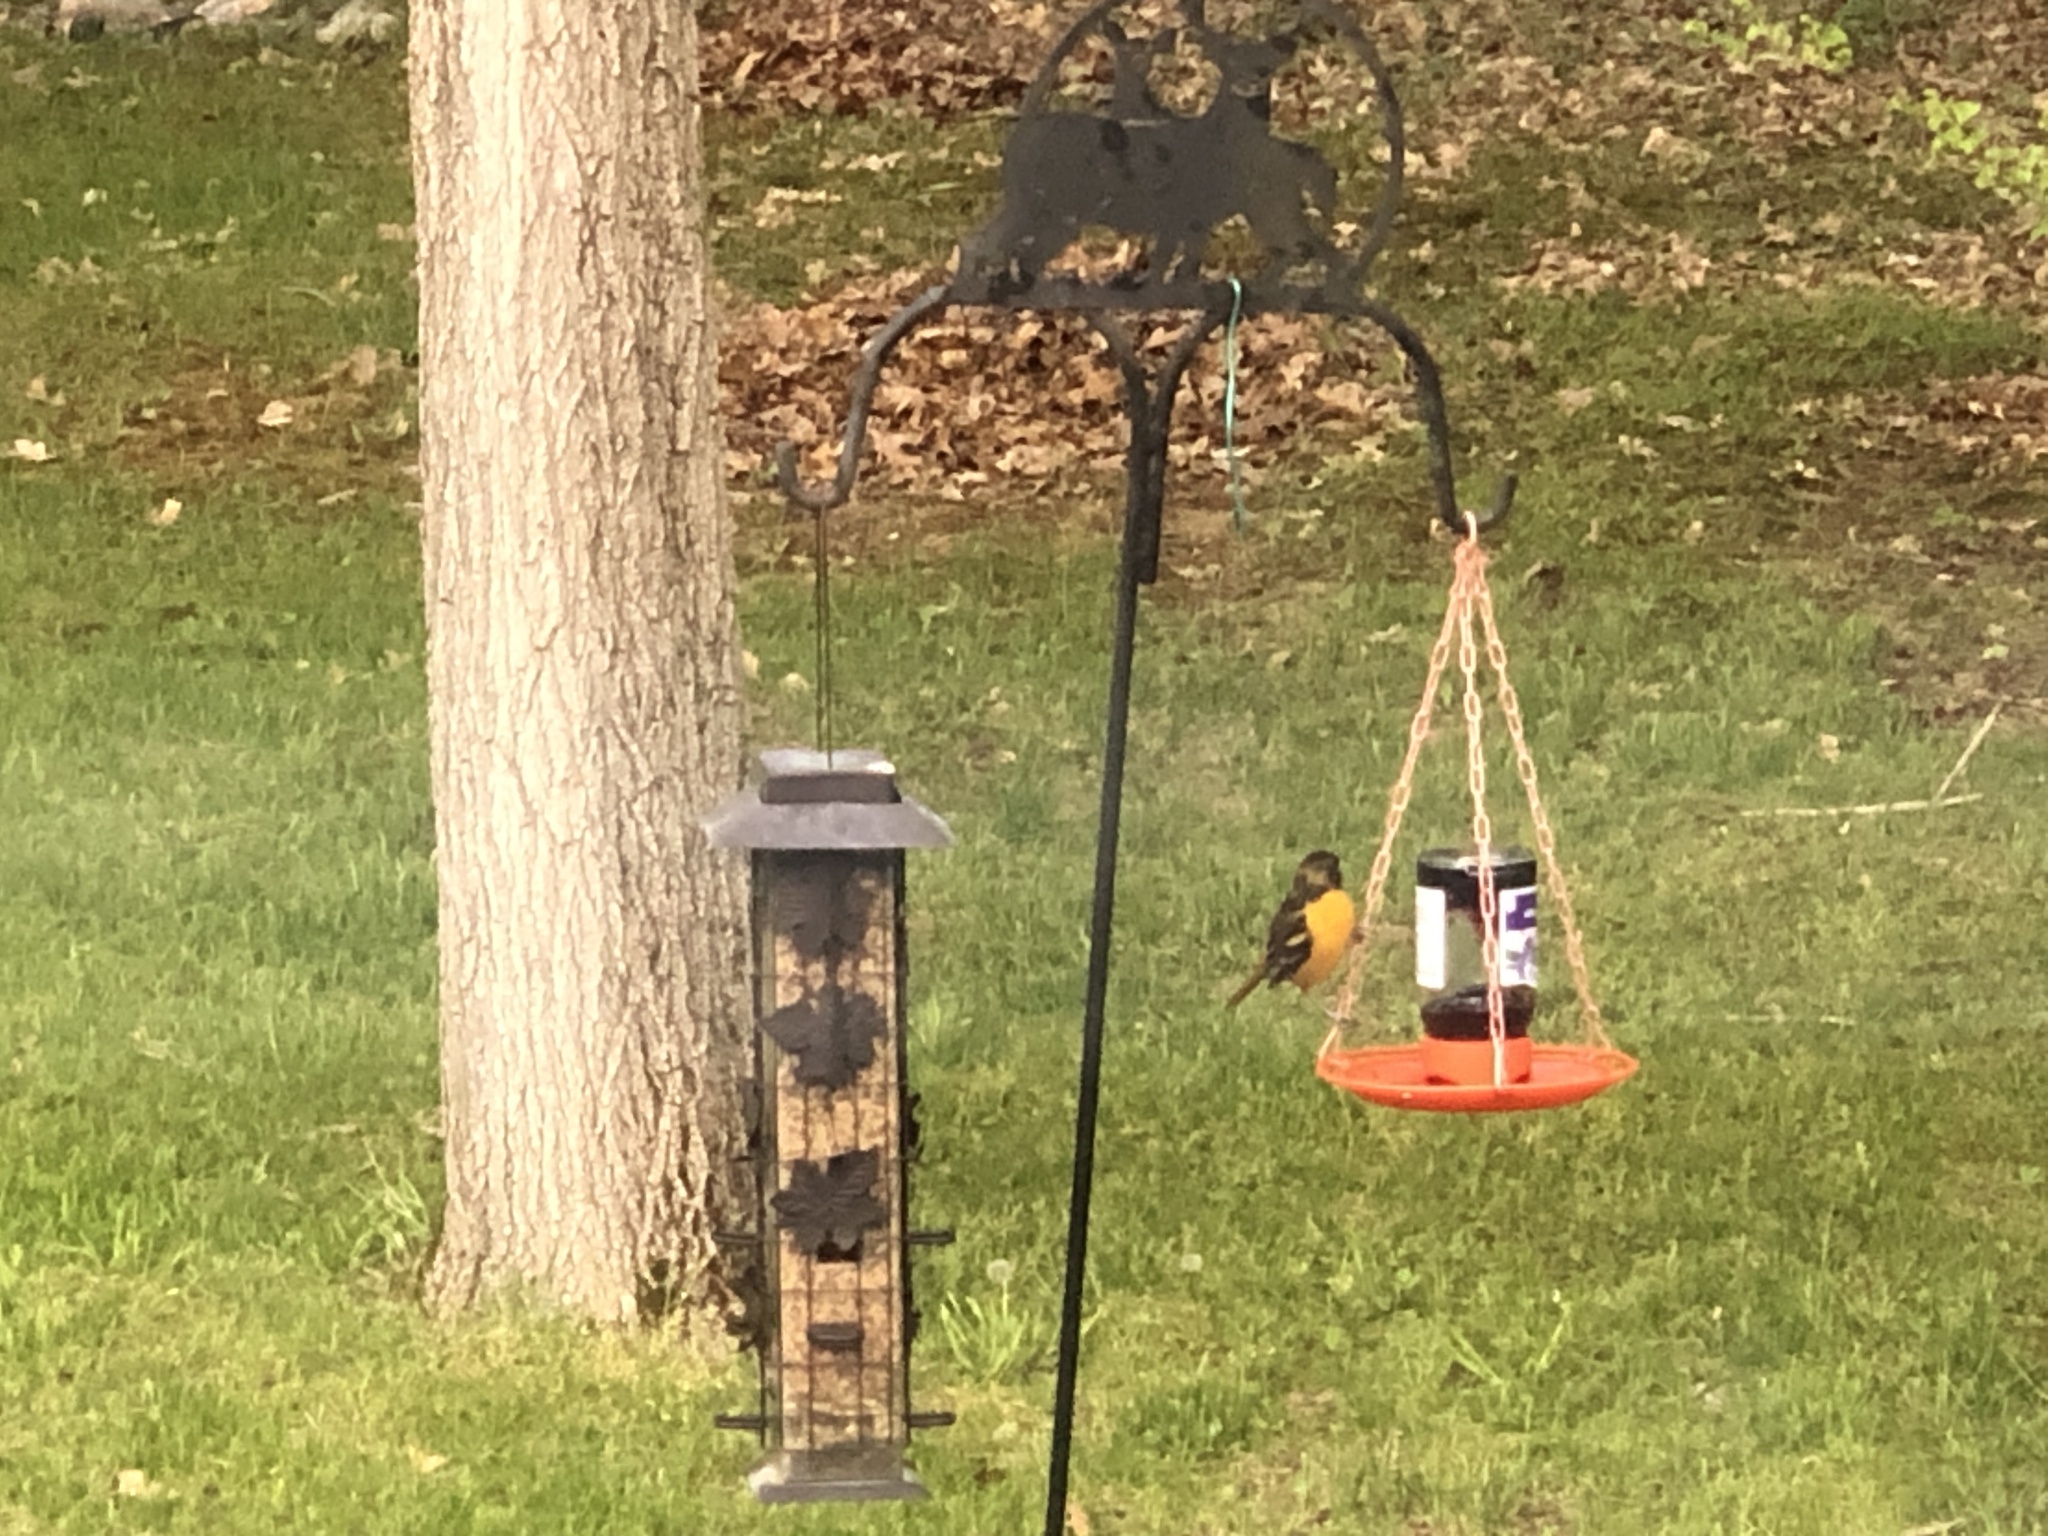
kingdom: Animalia
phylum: Chordata
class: Aves
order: Passeriformes
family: Icteridae
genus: Icterus
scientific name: Icterus galbula
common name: Baltimore oriole
